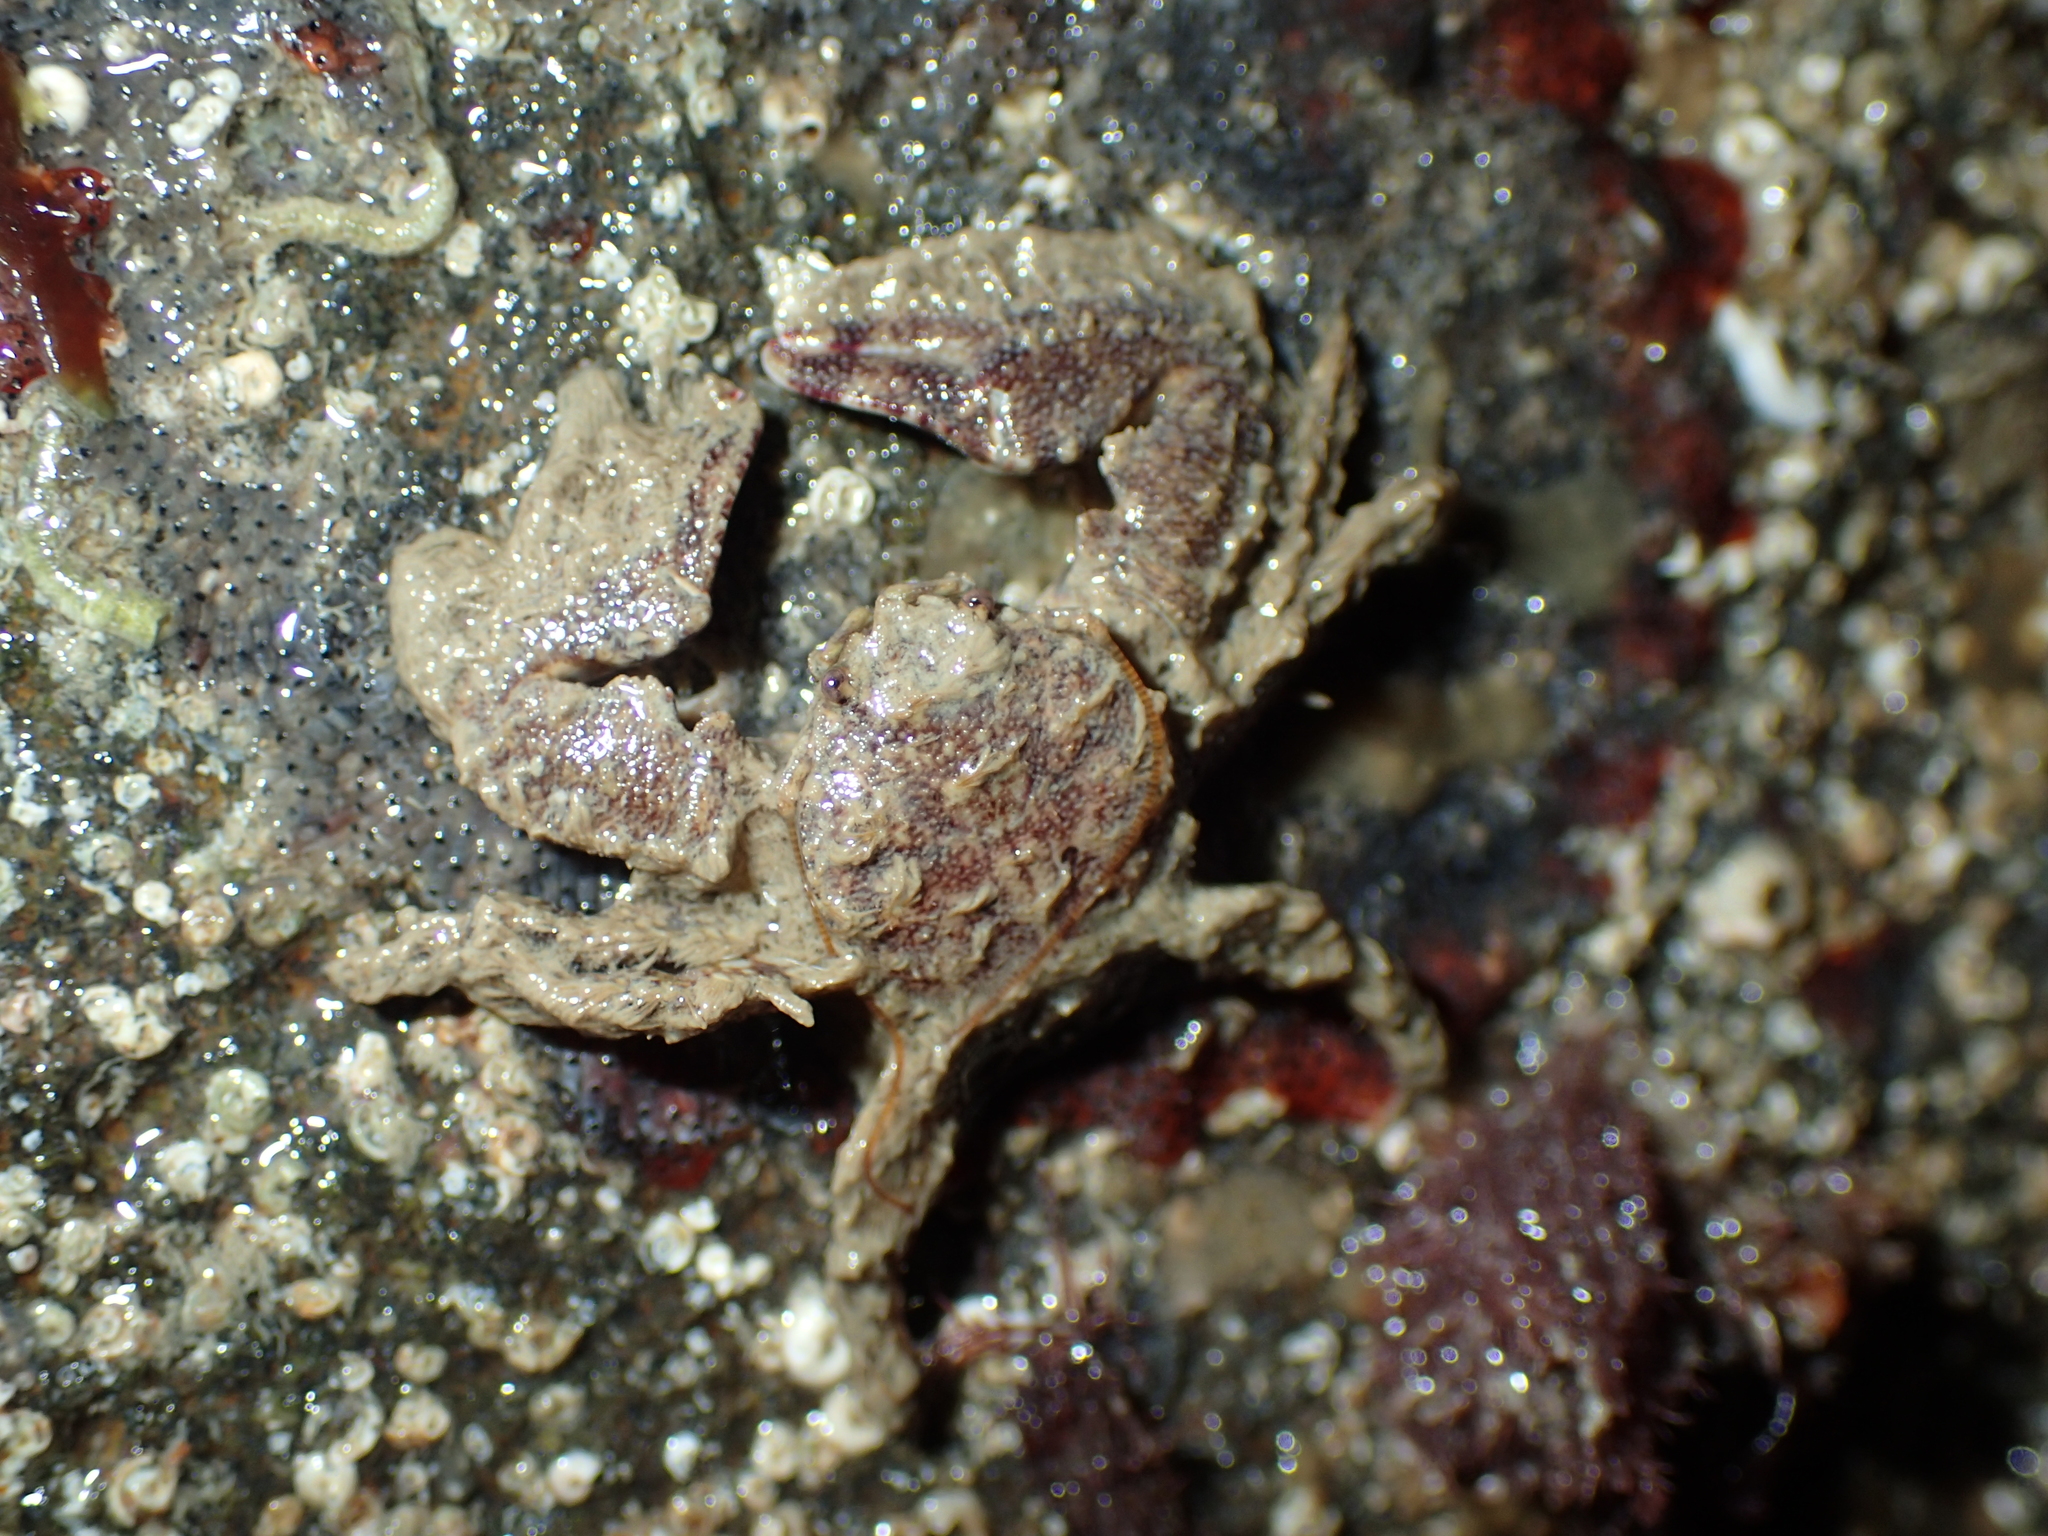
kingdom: Animalia
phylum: Arthropoda
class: Malacostraca
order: Decapoda
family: Porcellanidae
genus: Porcellana
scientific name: Porcellana platycheles
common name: Porcelain crab
